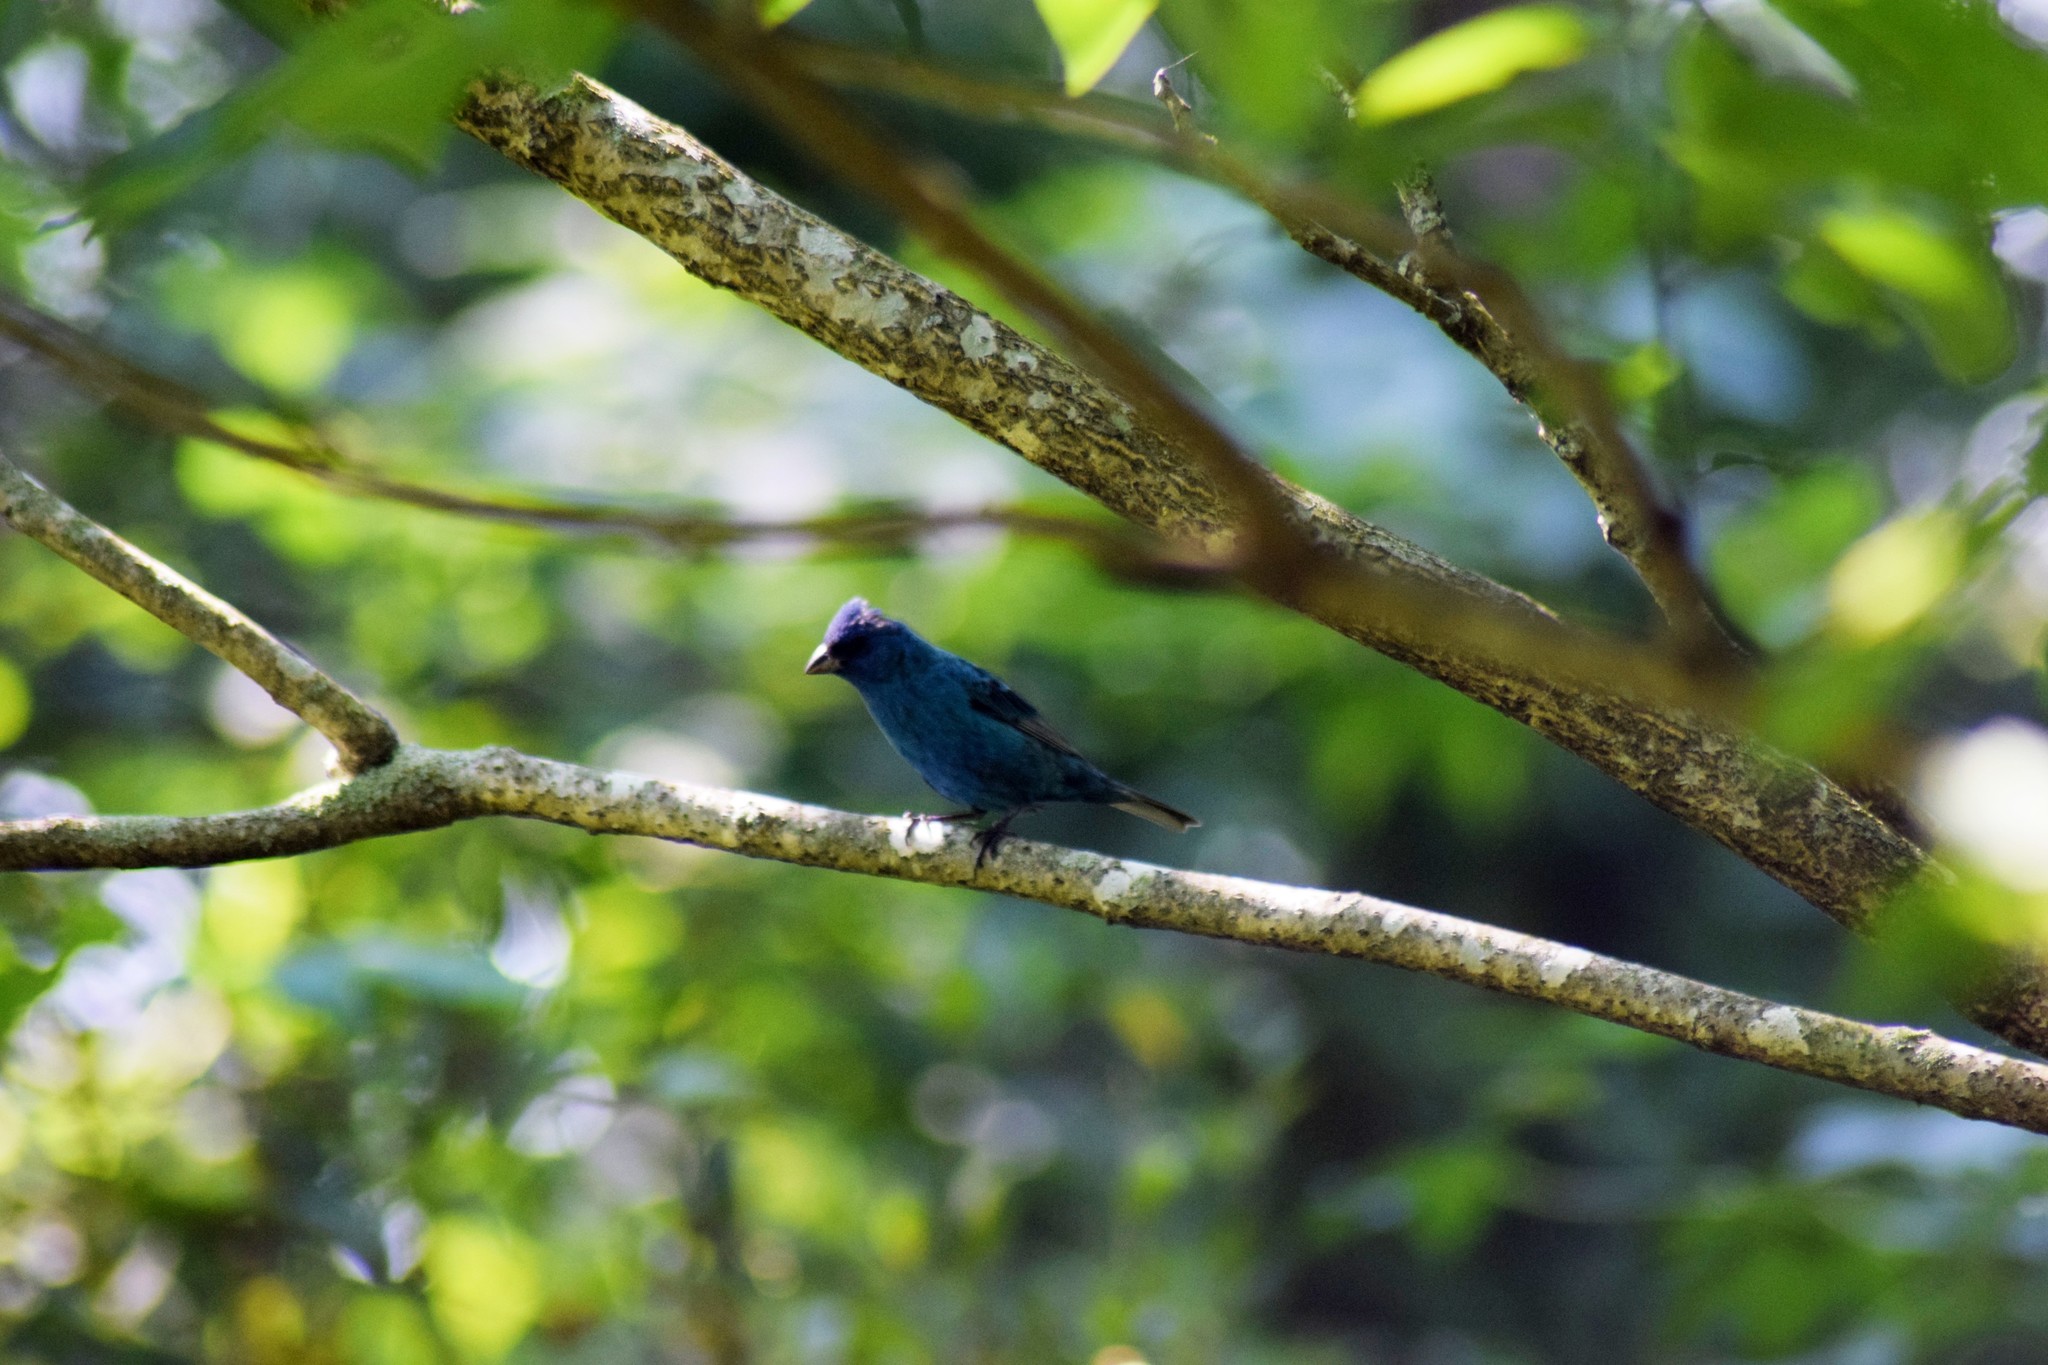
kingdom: Animalia
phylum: Chordata
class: Aves
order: Passeriformes
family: Cardinalidae
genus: Passerina
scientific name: Passerina cyanea
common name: Indigo bunting
